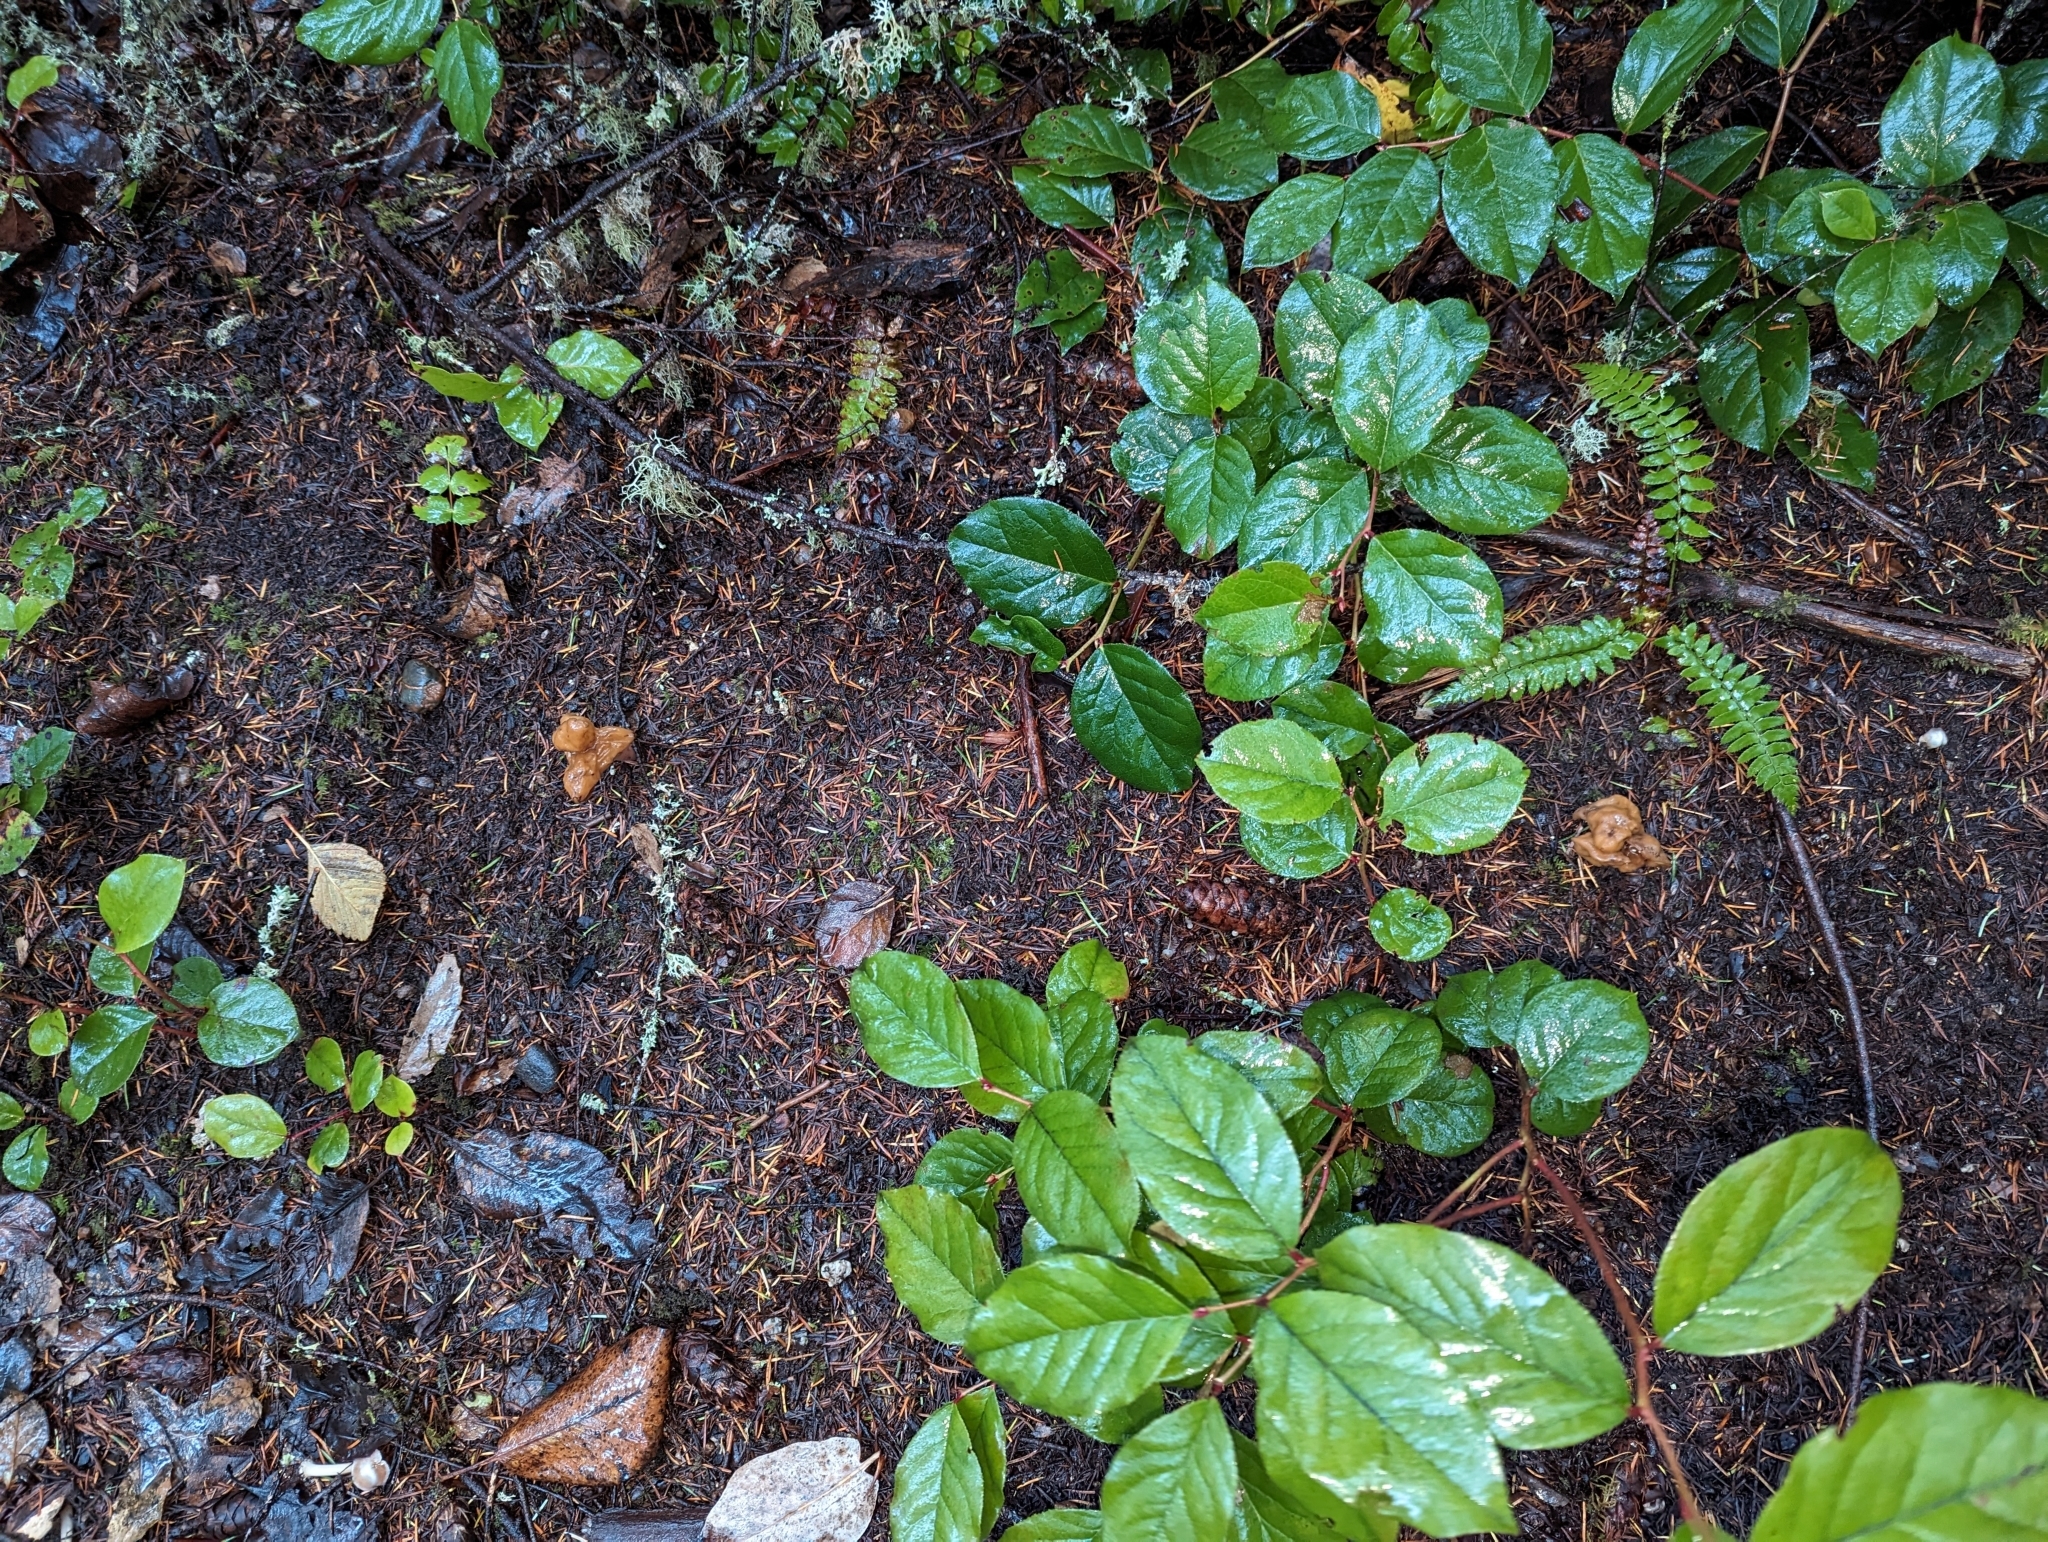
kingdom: Fungi
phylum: Ascomycota
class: Pezizomycetes
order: Pezizales
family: Discinaceae
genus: Gyromitra
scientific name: Gyromitra infula
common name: Pouched false morel
